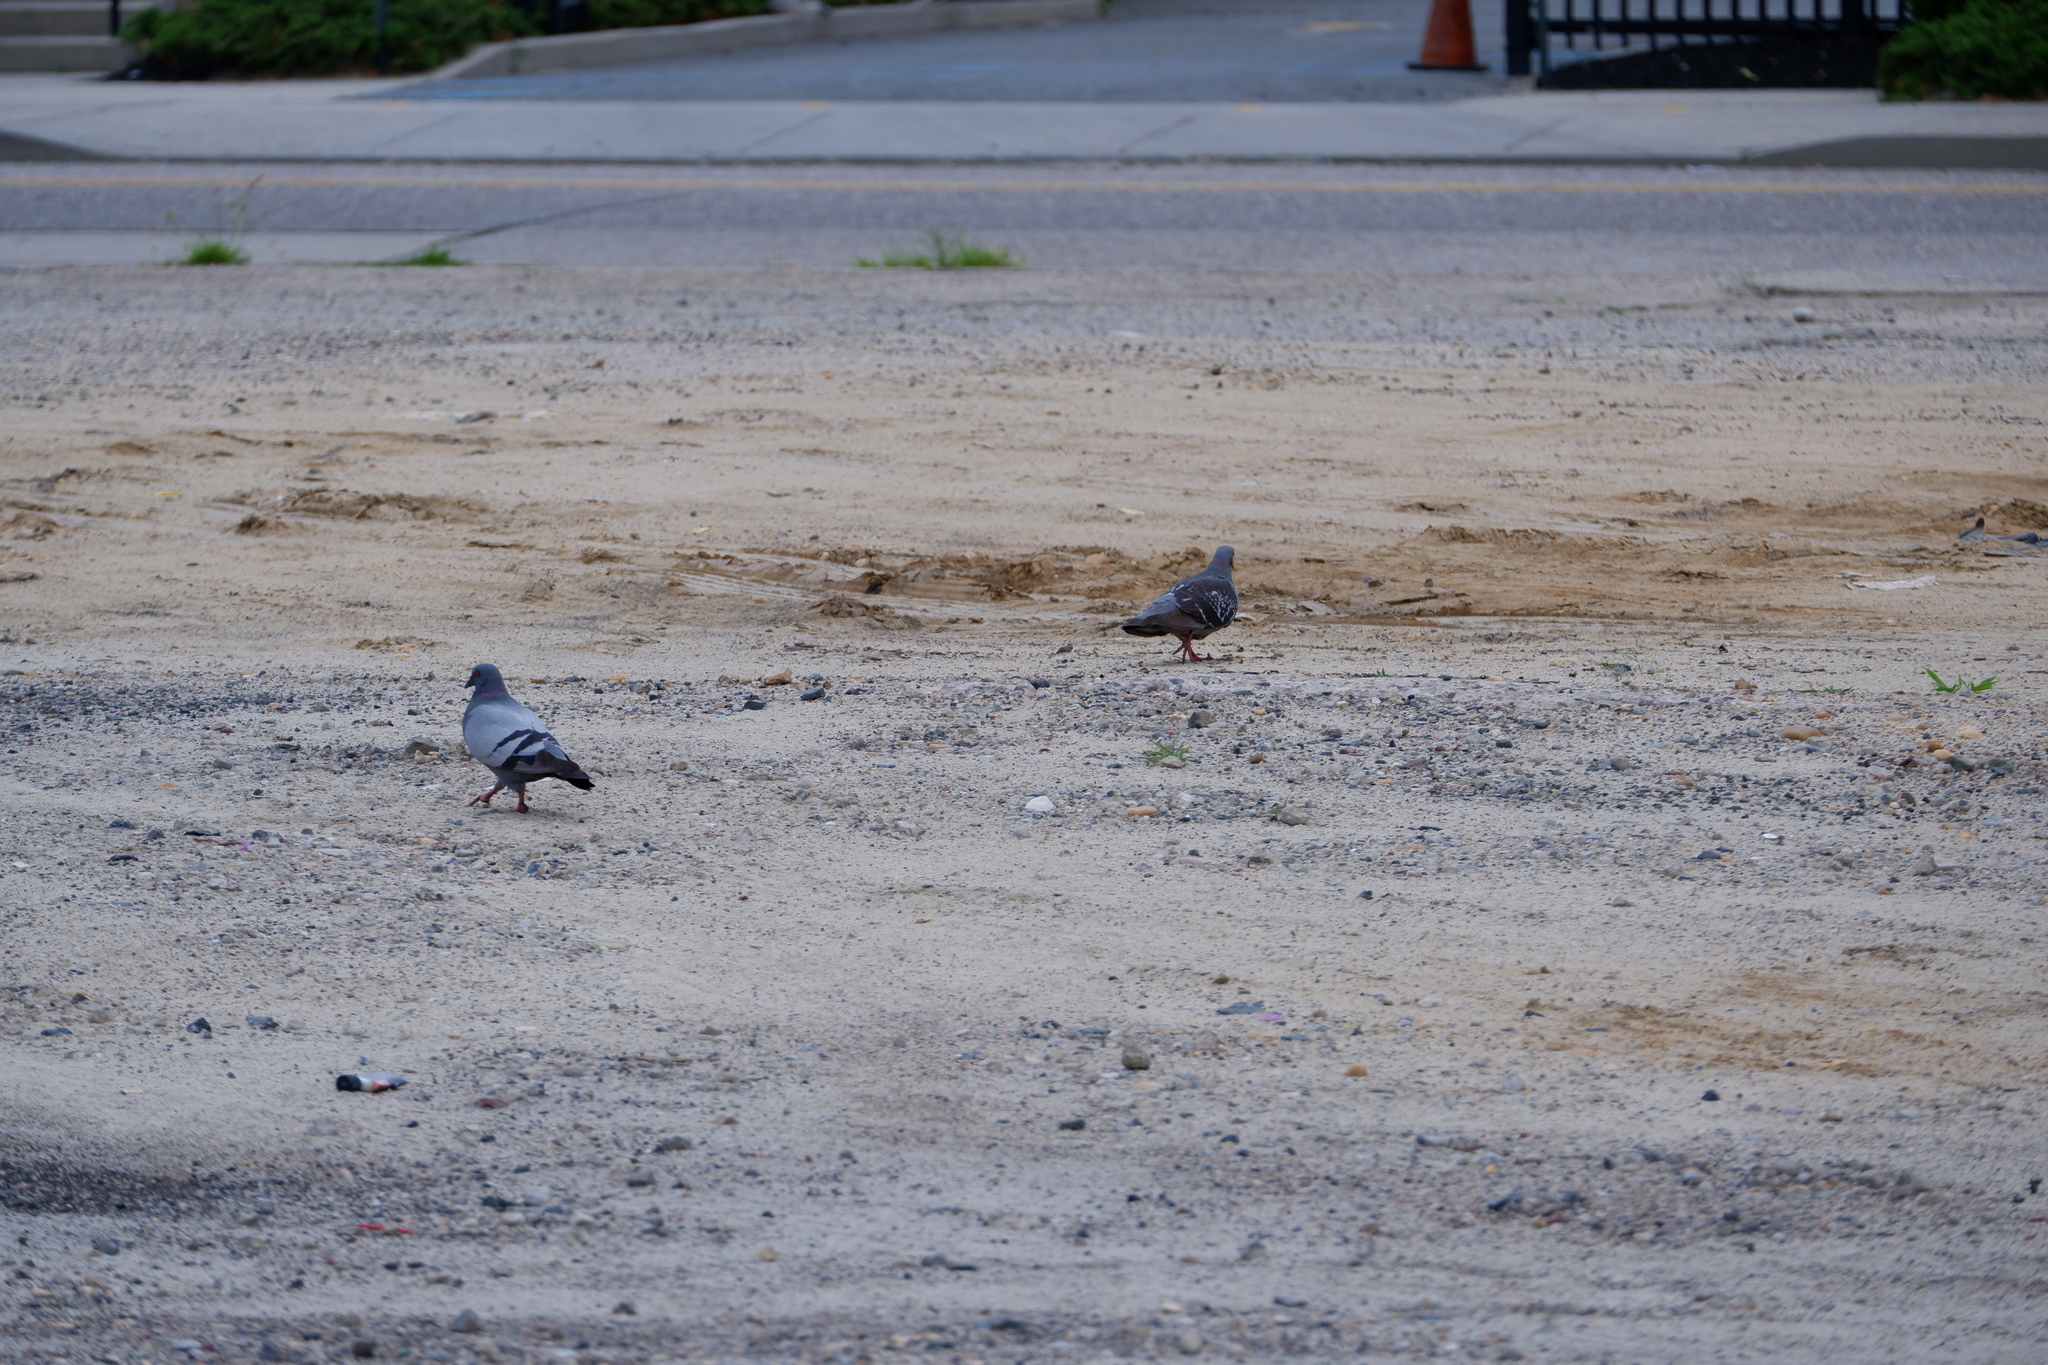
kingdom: Animalia
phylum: Chordata
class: Aves
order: Columbiformes
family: Columbidae
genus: Columba
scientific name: Columba livia
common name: Rock pigeon
